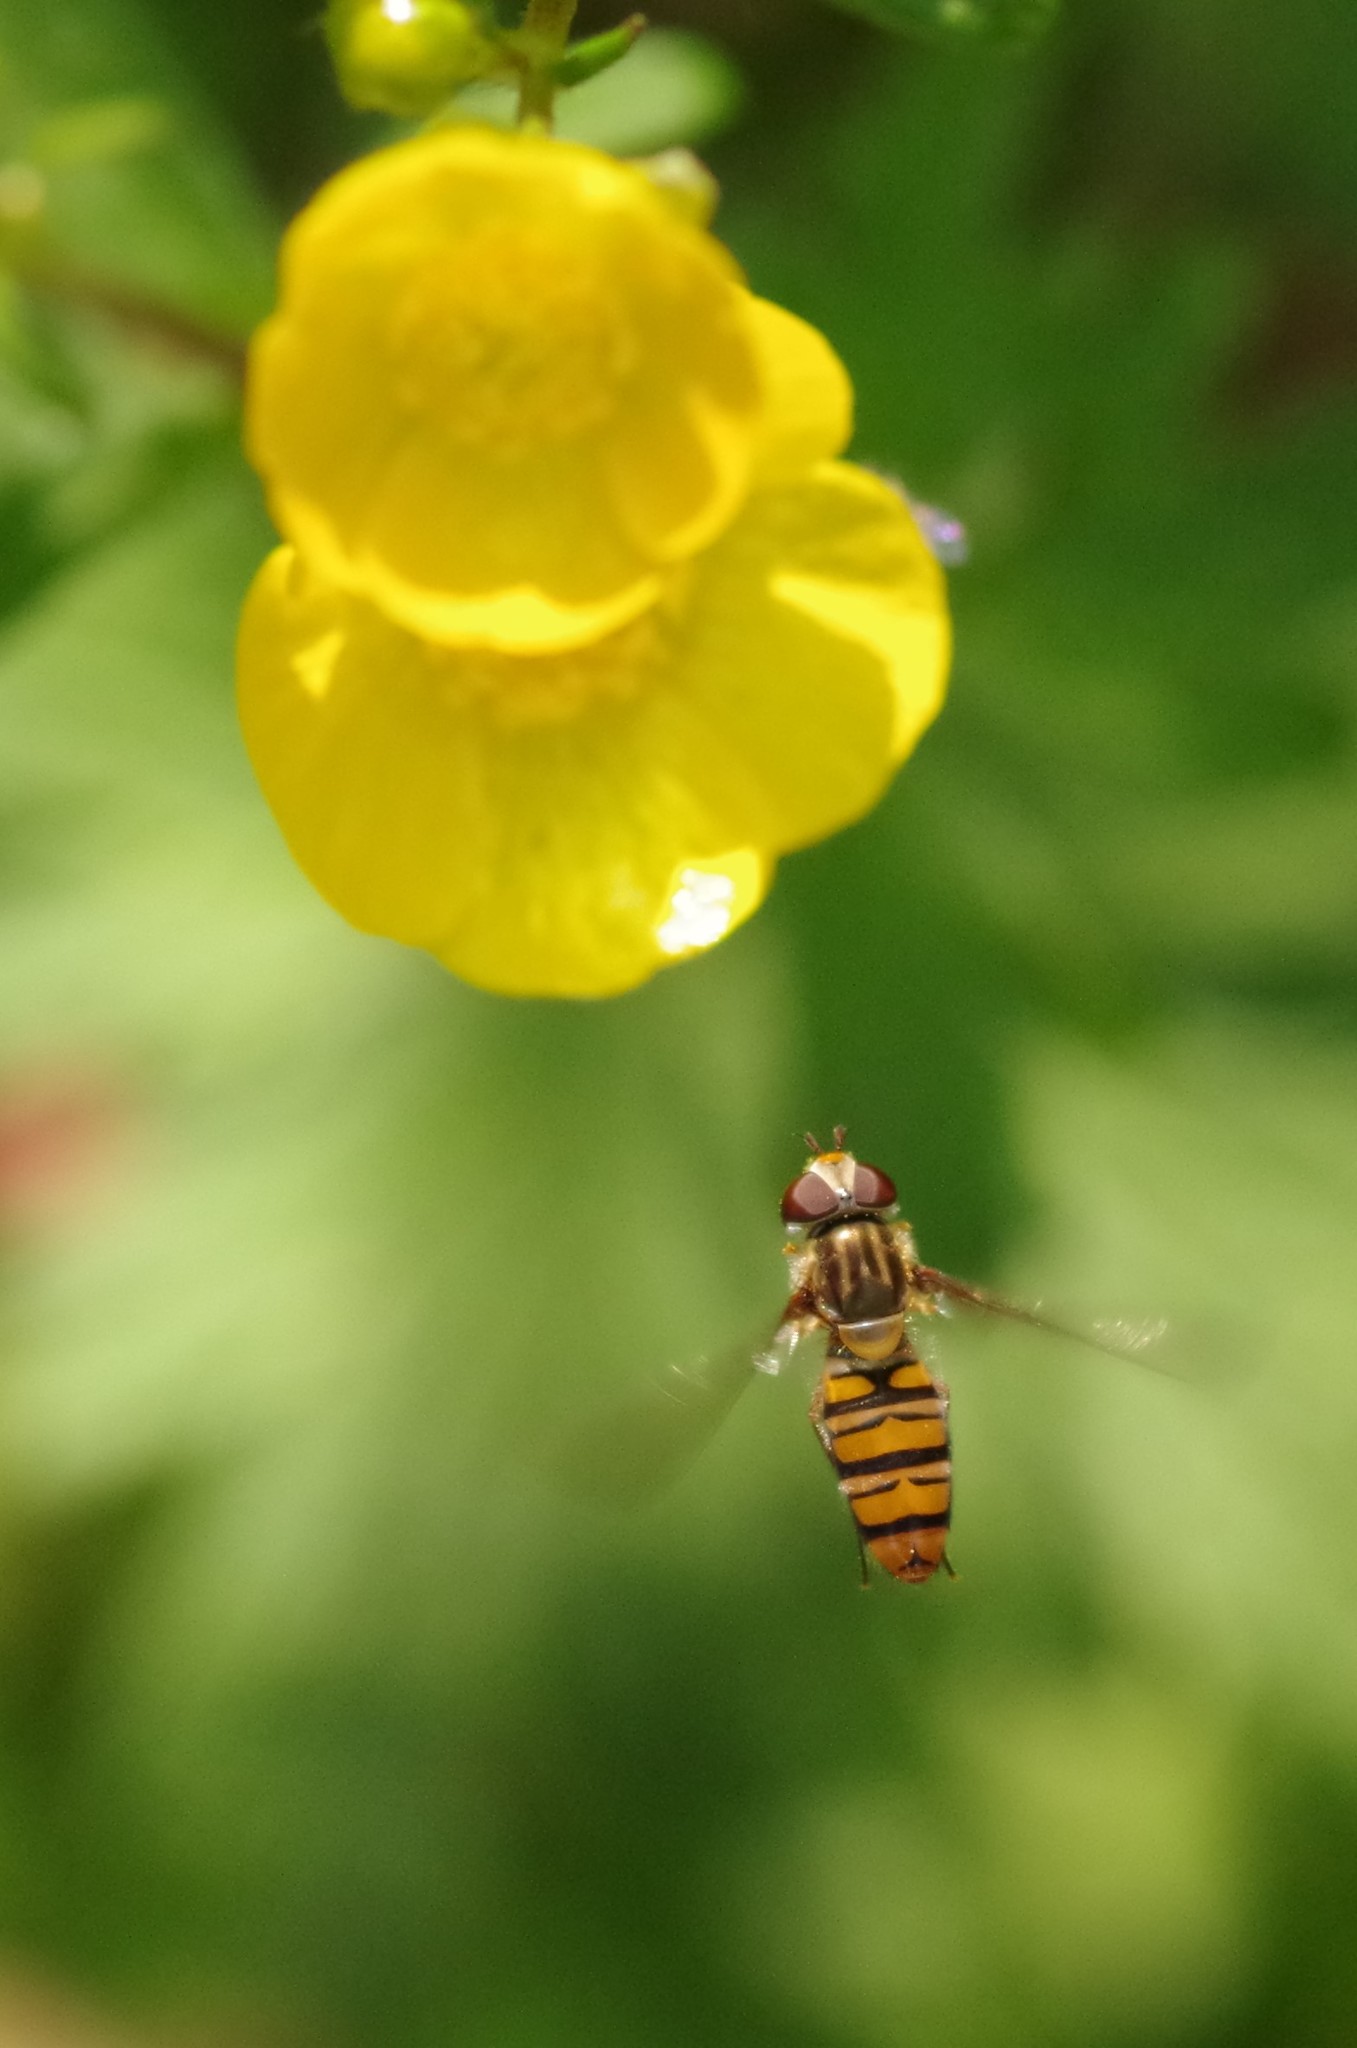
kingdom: Animalia
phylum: Arthropoda
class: Insecta
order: Diptera
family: Syrphidae
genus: Episyrphus
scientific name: Episyrphus balteatus
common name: Marmalade hoverfly
